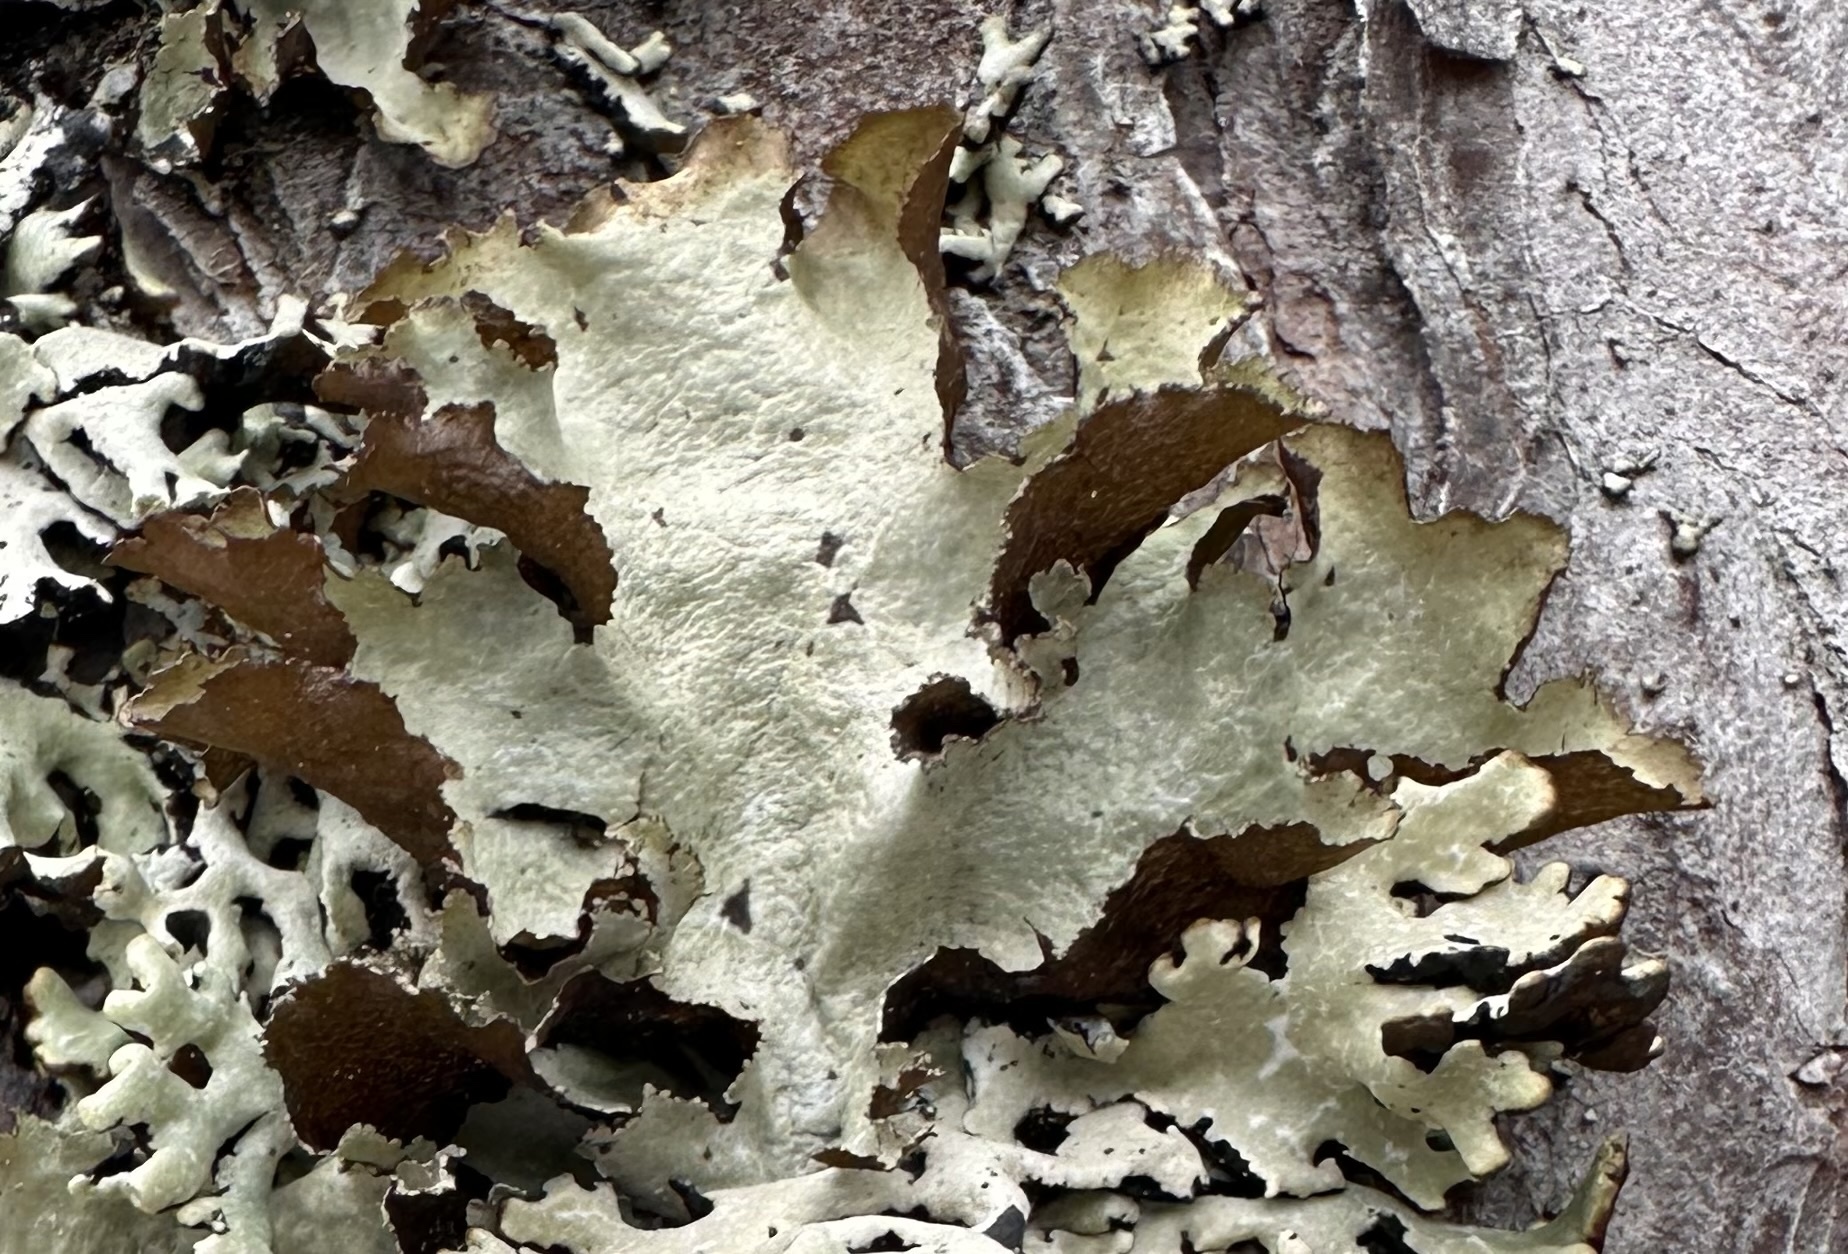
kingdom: Fungi
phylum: Ascomycota
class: Lecanoromycetes
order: Lecanorales
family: Parmeliaceae
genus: Platismatia
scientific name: Platismatia glauca
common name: Varied rag lichen
